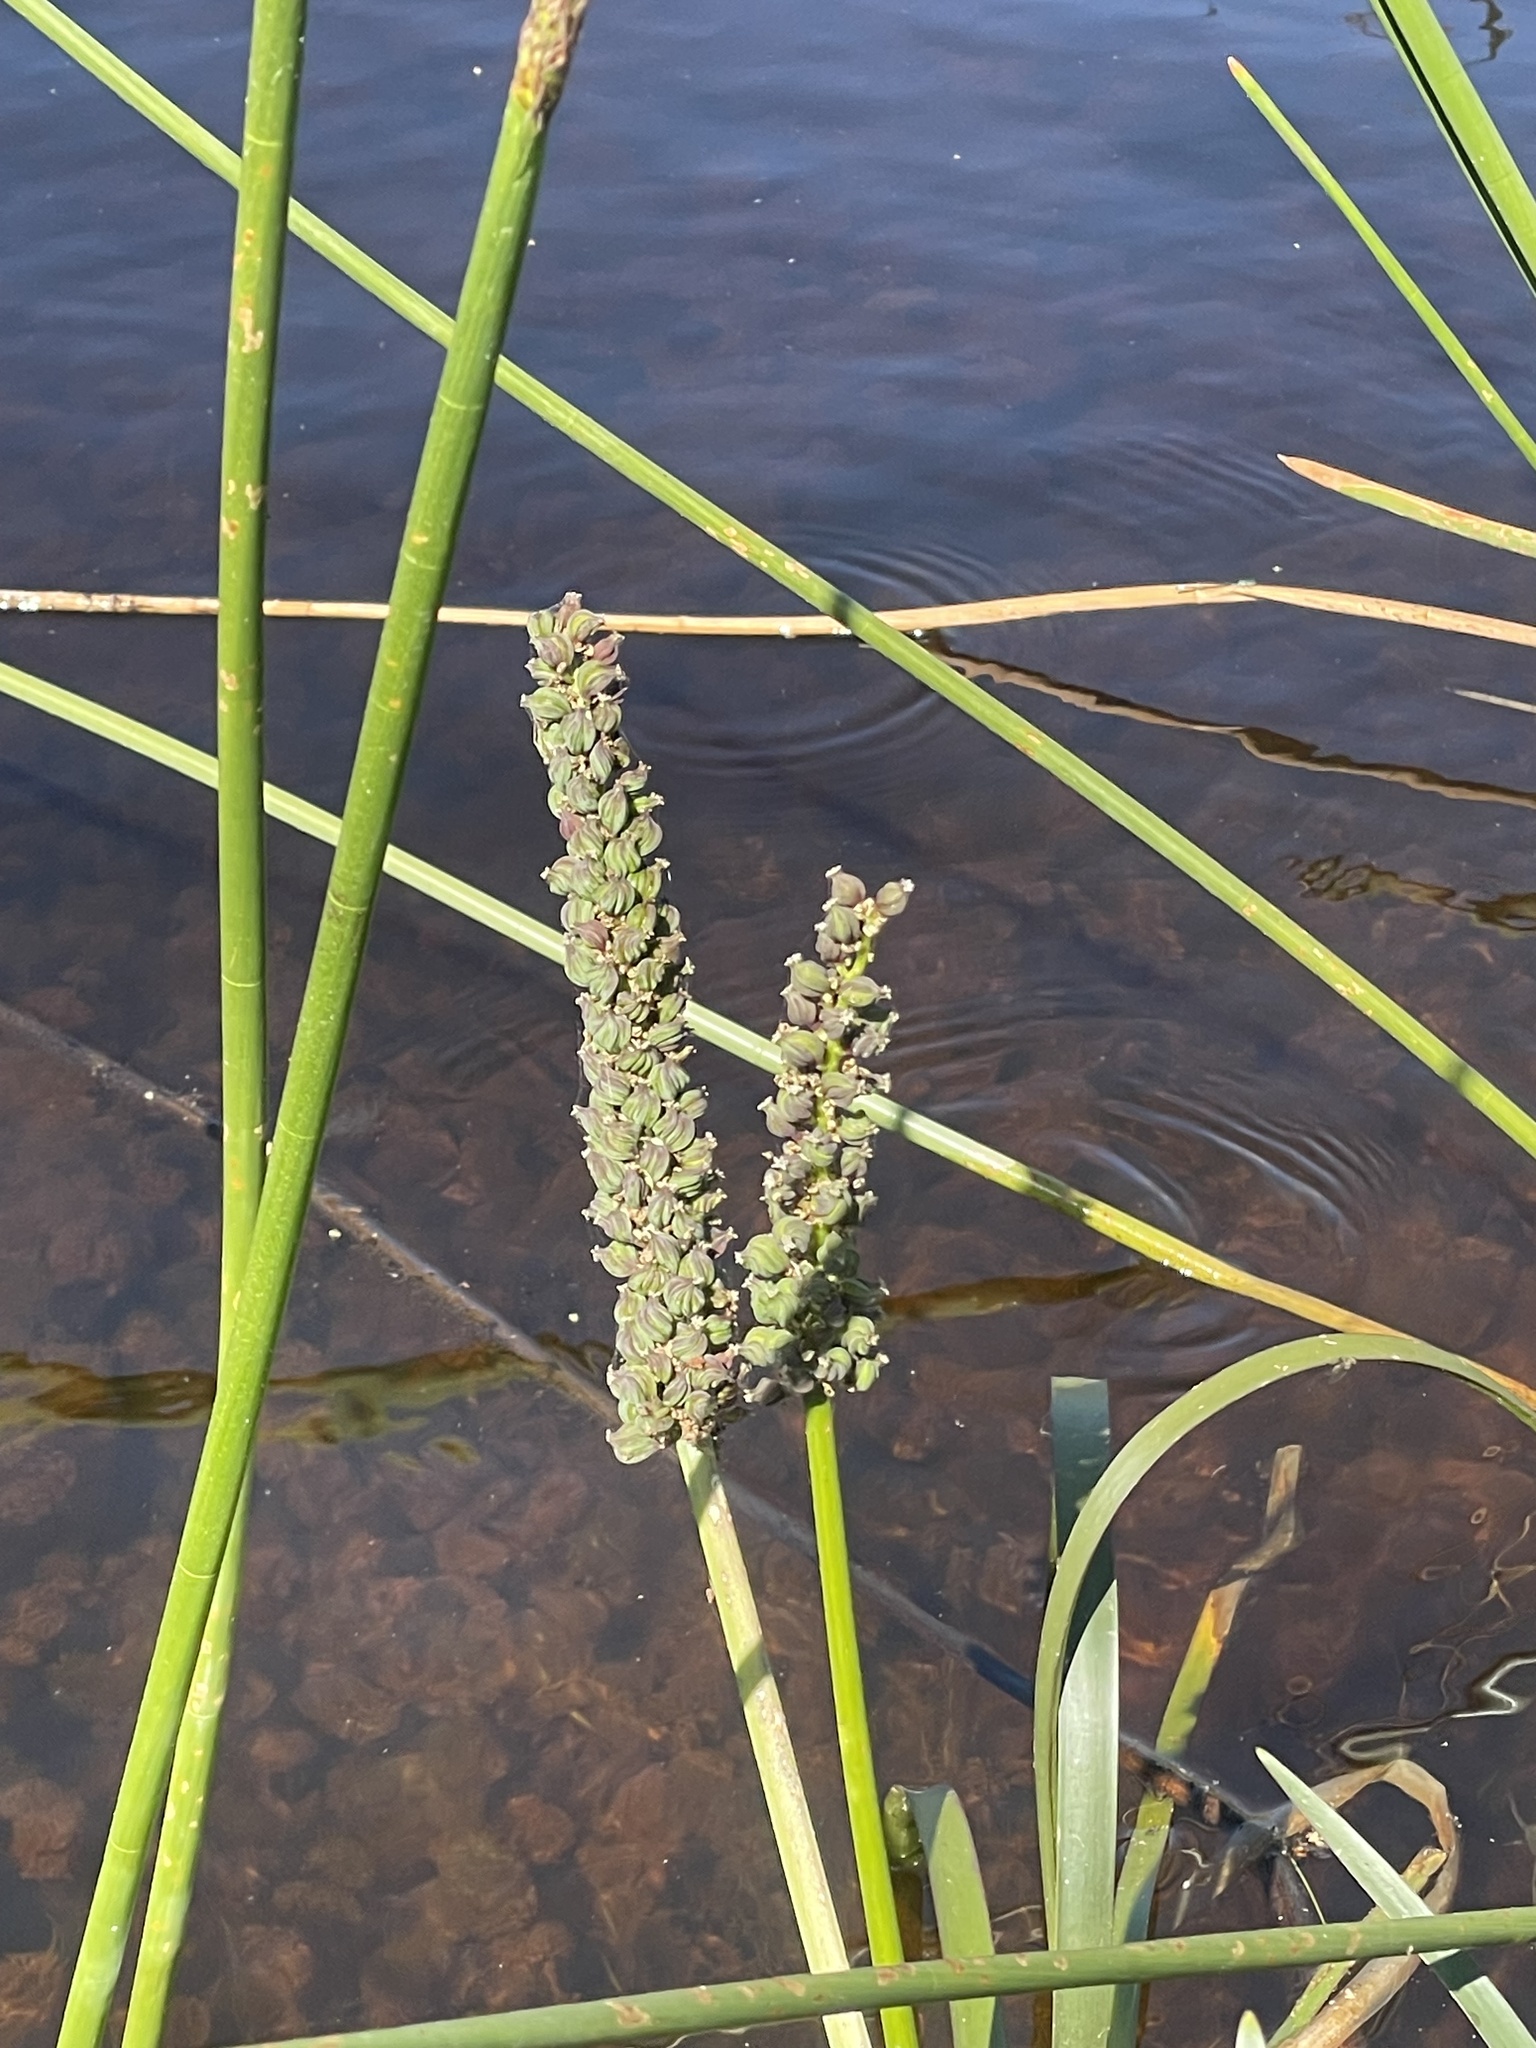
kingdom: Plantae
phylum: Tracheophyta
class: Liliopsida
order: Alismatales
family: Juncaginaceae
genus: Cycnogeton
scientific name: Cycnogeton procerum
